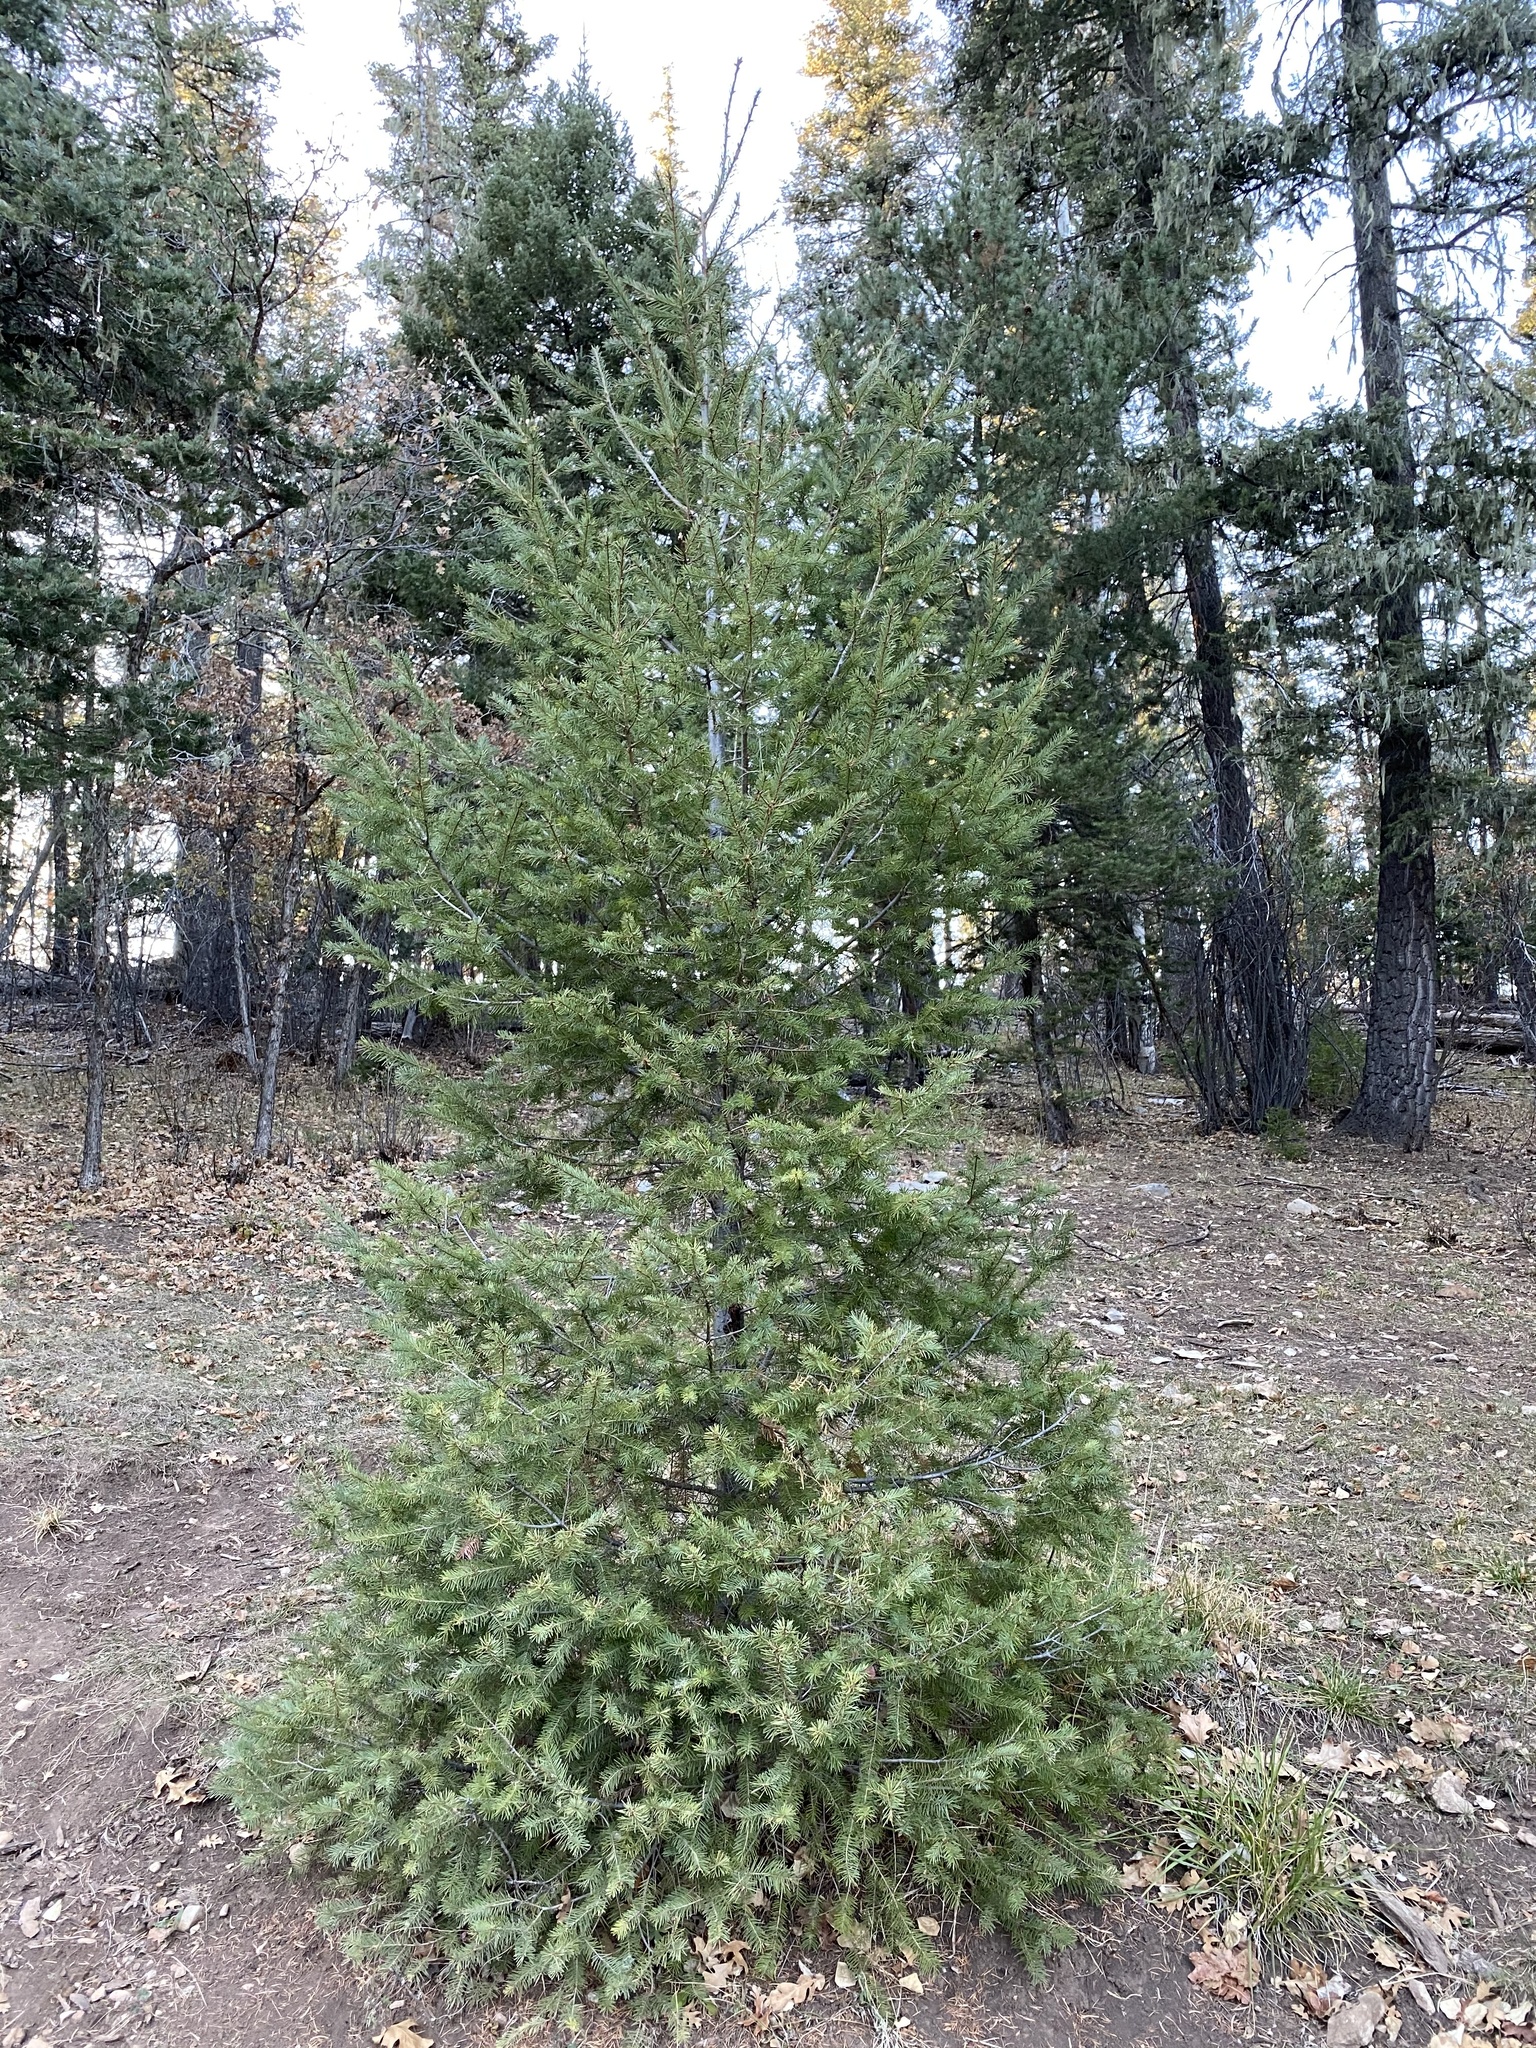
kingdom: Plantae
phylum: Tracheophyta
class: Pinopsida
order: Pinales
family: Pinaceae
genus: Pseudotsuga
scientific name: Pseudotsuga menziesii
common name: Douglas fir
